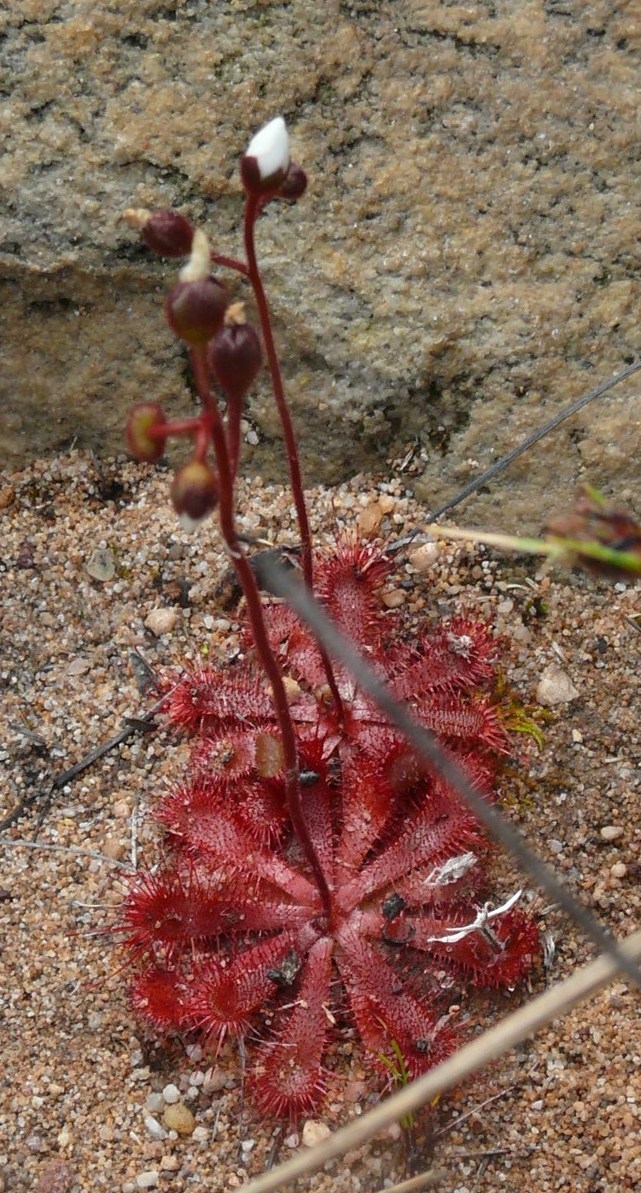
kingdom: Plantae
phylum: Tracheophyta
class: Magnoliopsida
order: Caryophyllales
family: Droseraceae
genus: Drosera
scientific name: Drosera trinervia
